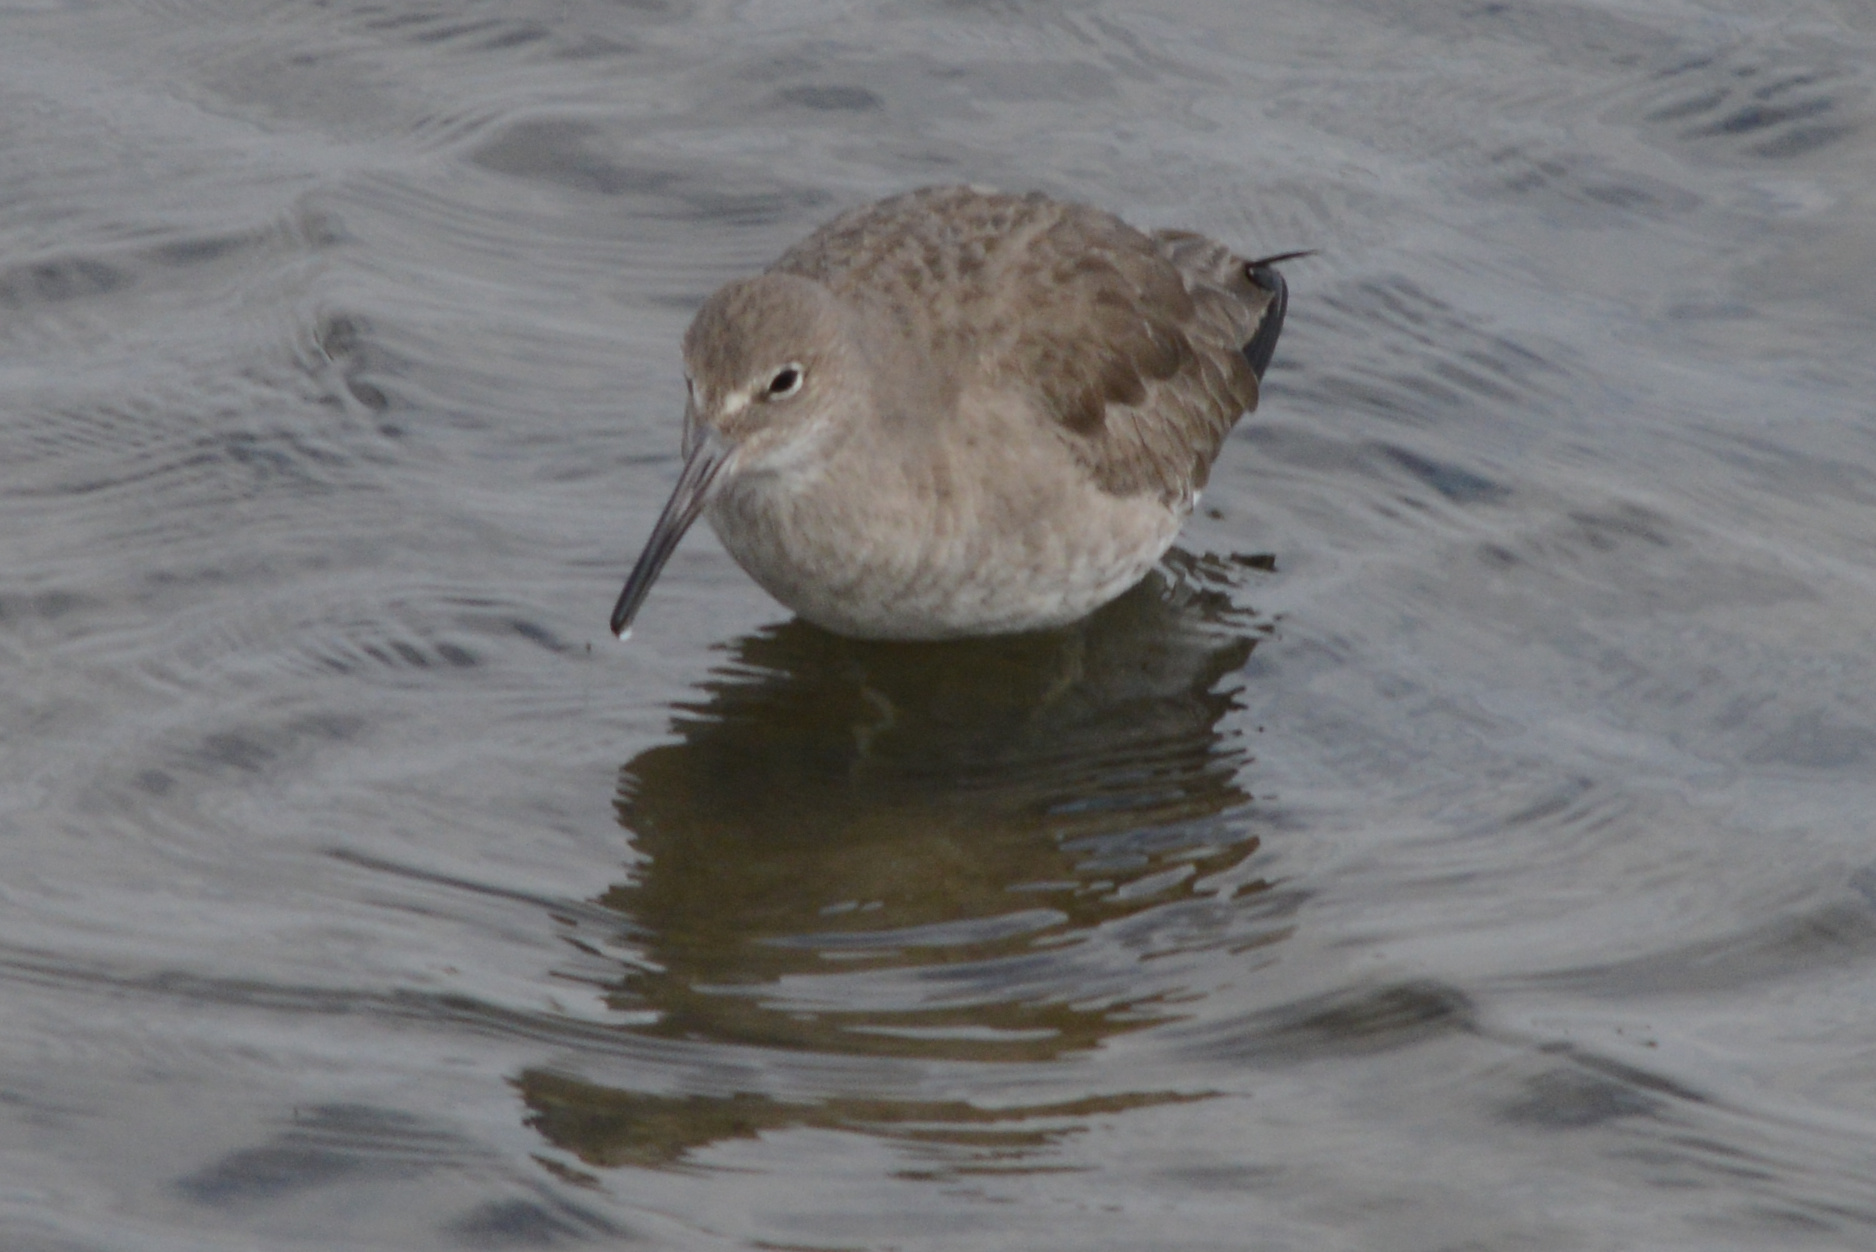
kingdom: Animalia
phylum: Chordata
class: Aves
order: Charadriiformes
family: Scolopacidae
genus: Tringa
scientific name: Tringa semipalmata
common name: Willet
